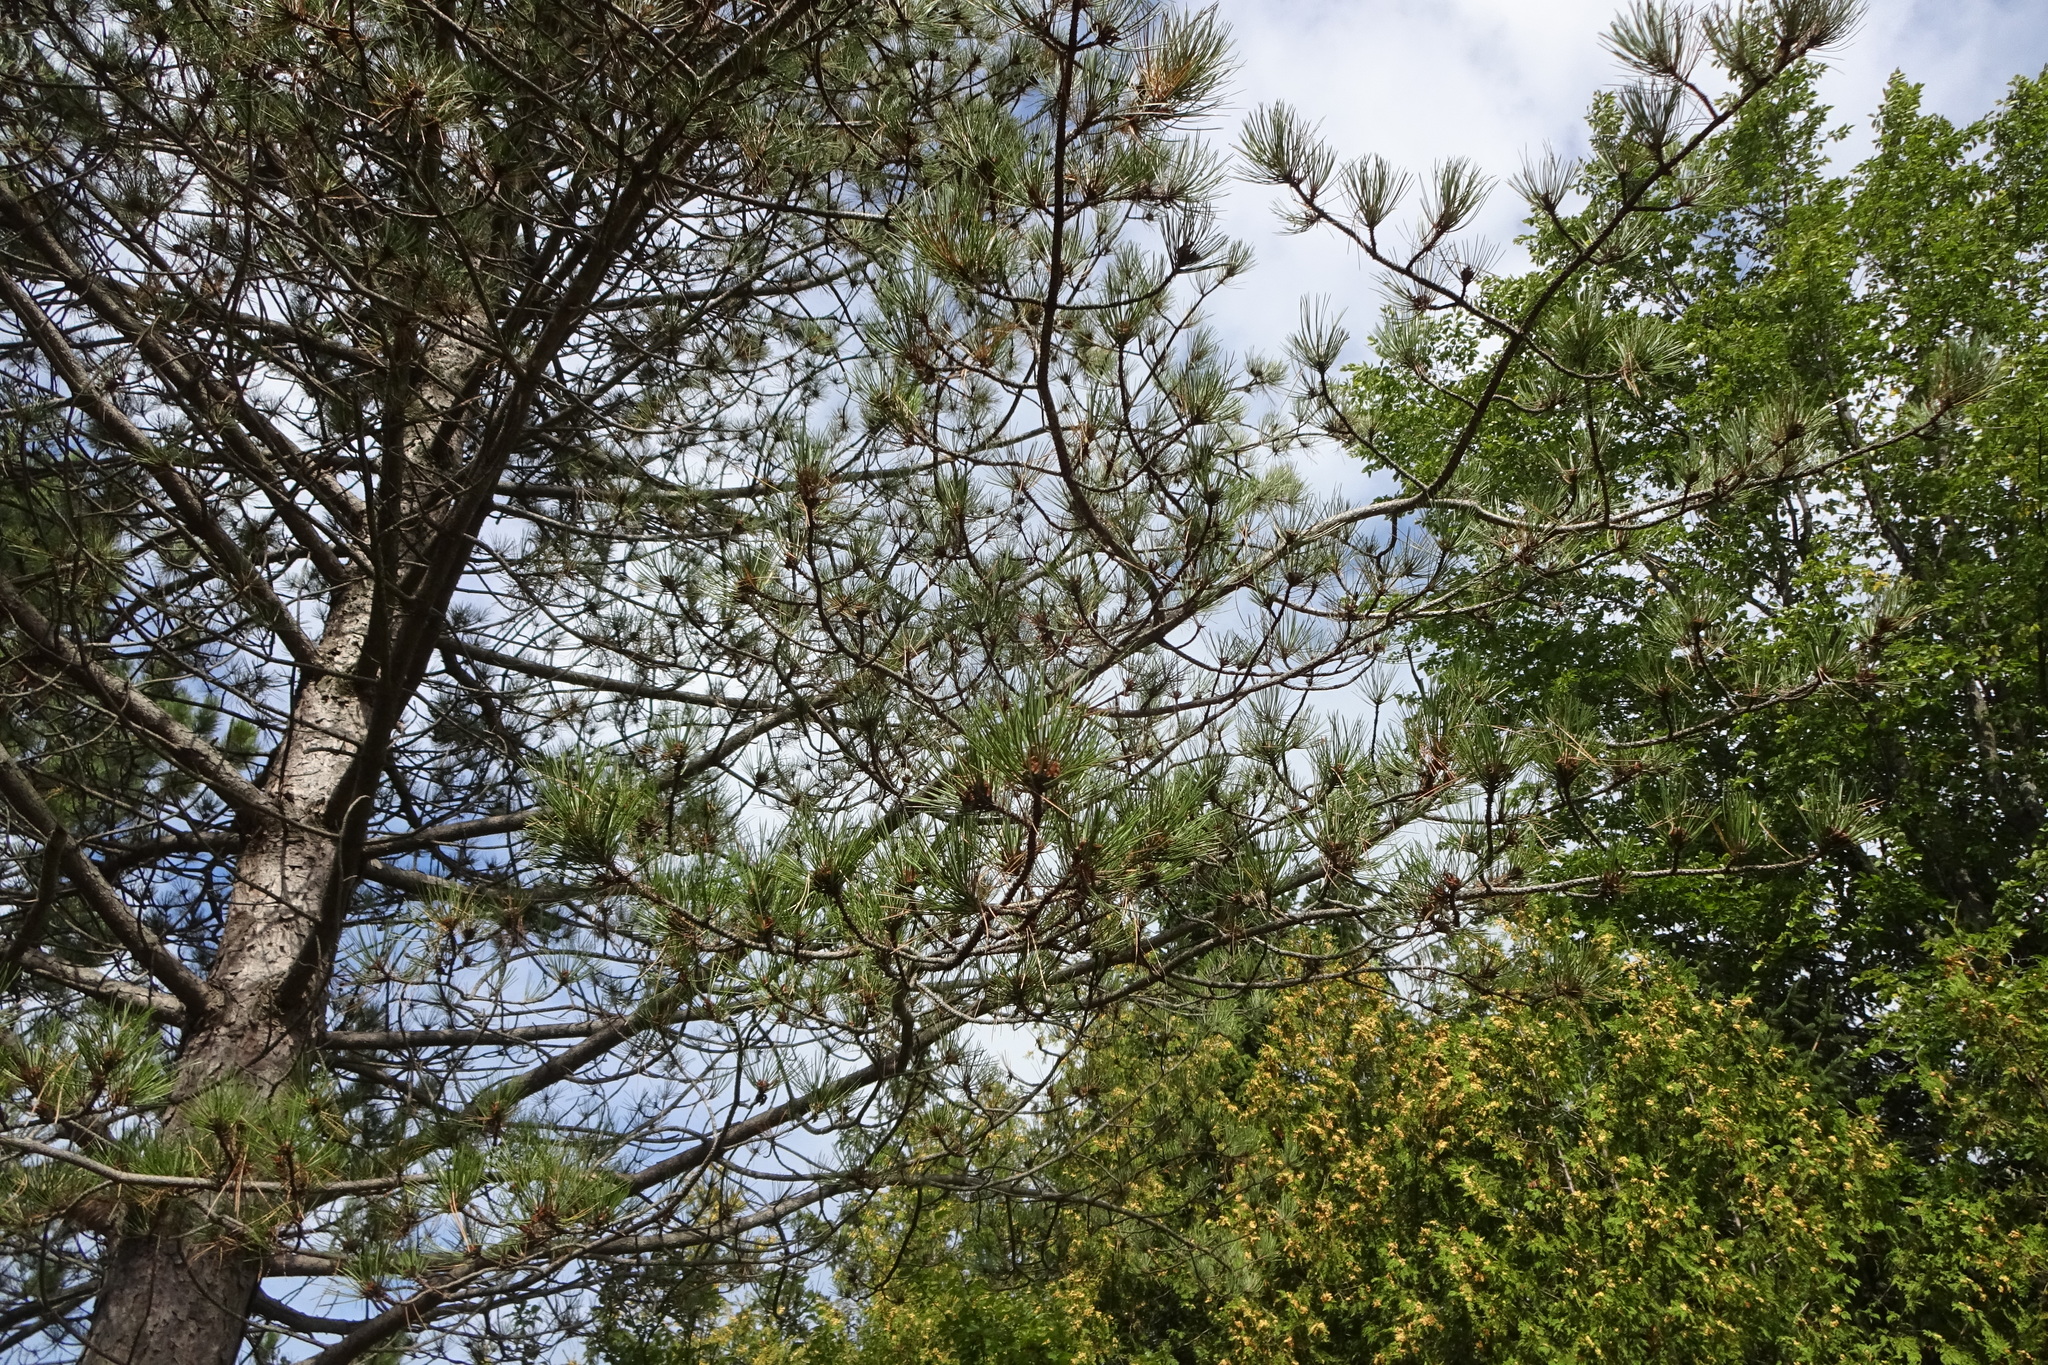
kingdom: Plantae
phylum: Tracheophyta
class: Pinopsida
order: Pinales
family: Pinaceae
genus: Pinus
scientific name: Pinus resinosa
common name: Norway pine
